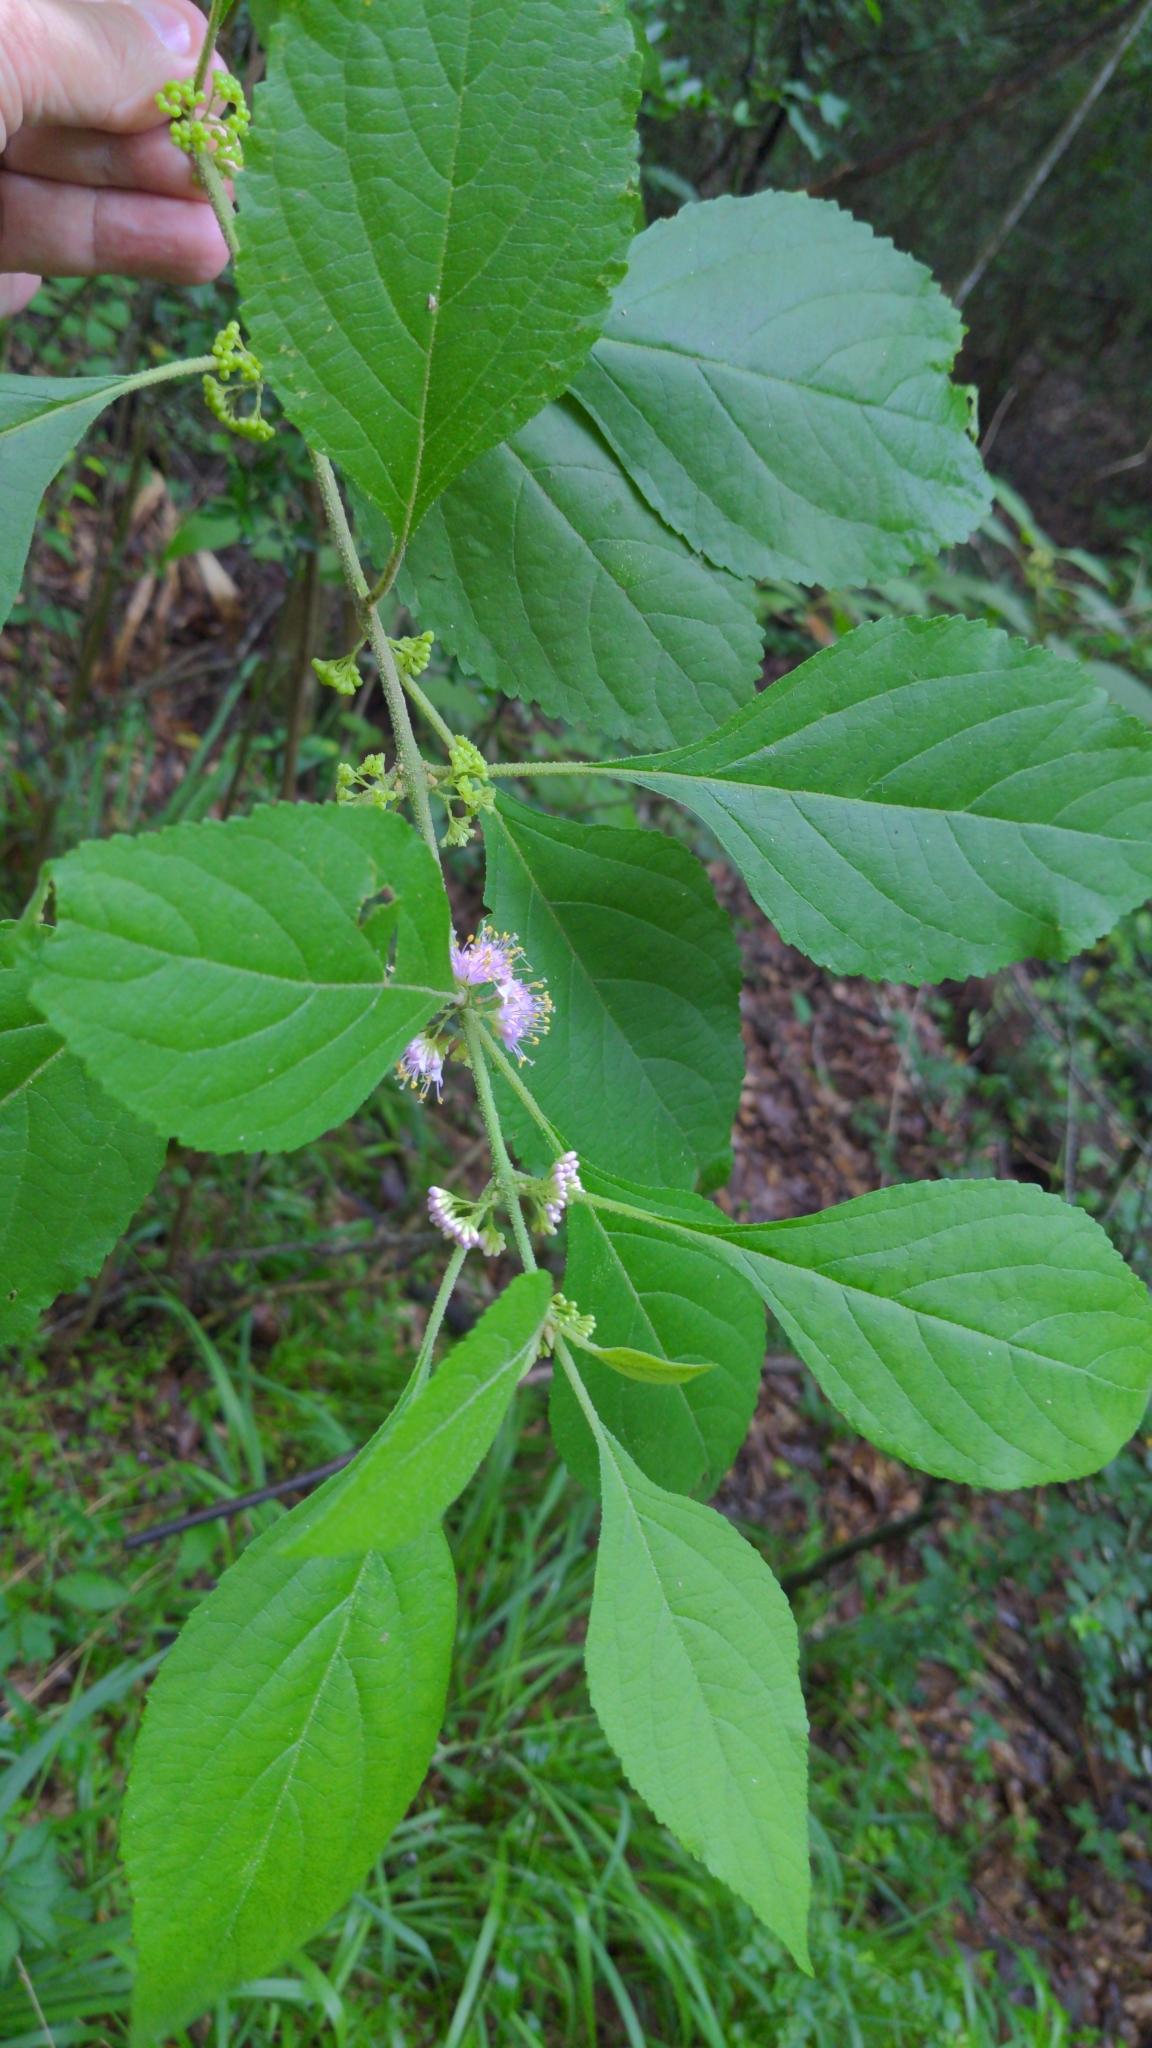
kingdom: Plantae
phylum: Tracheophyta
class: Magnoliopsida
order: Lamiales
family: Lamiaceae
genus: Callicarpa
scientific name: Callicarpa americana
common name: American beautyberry
